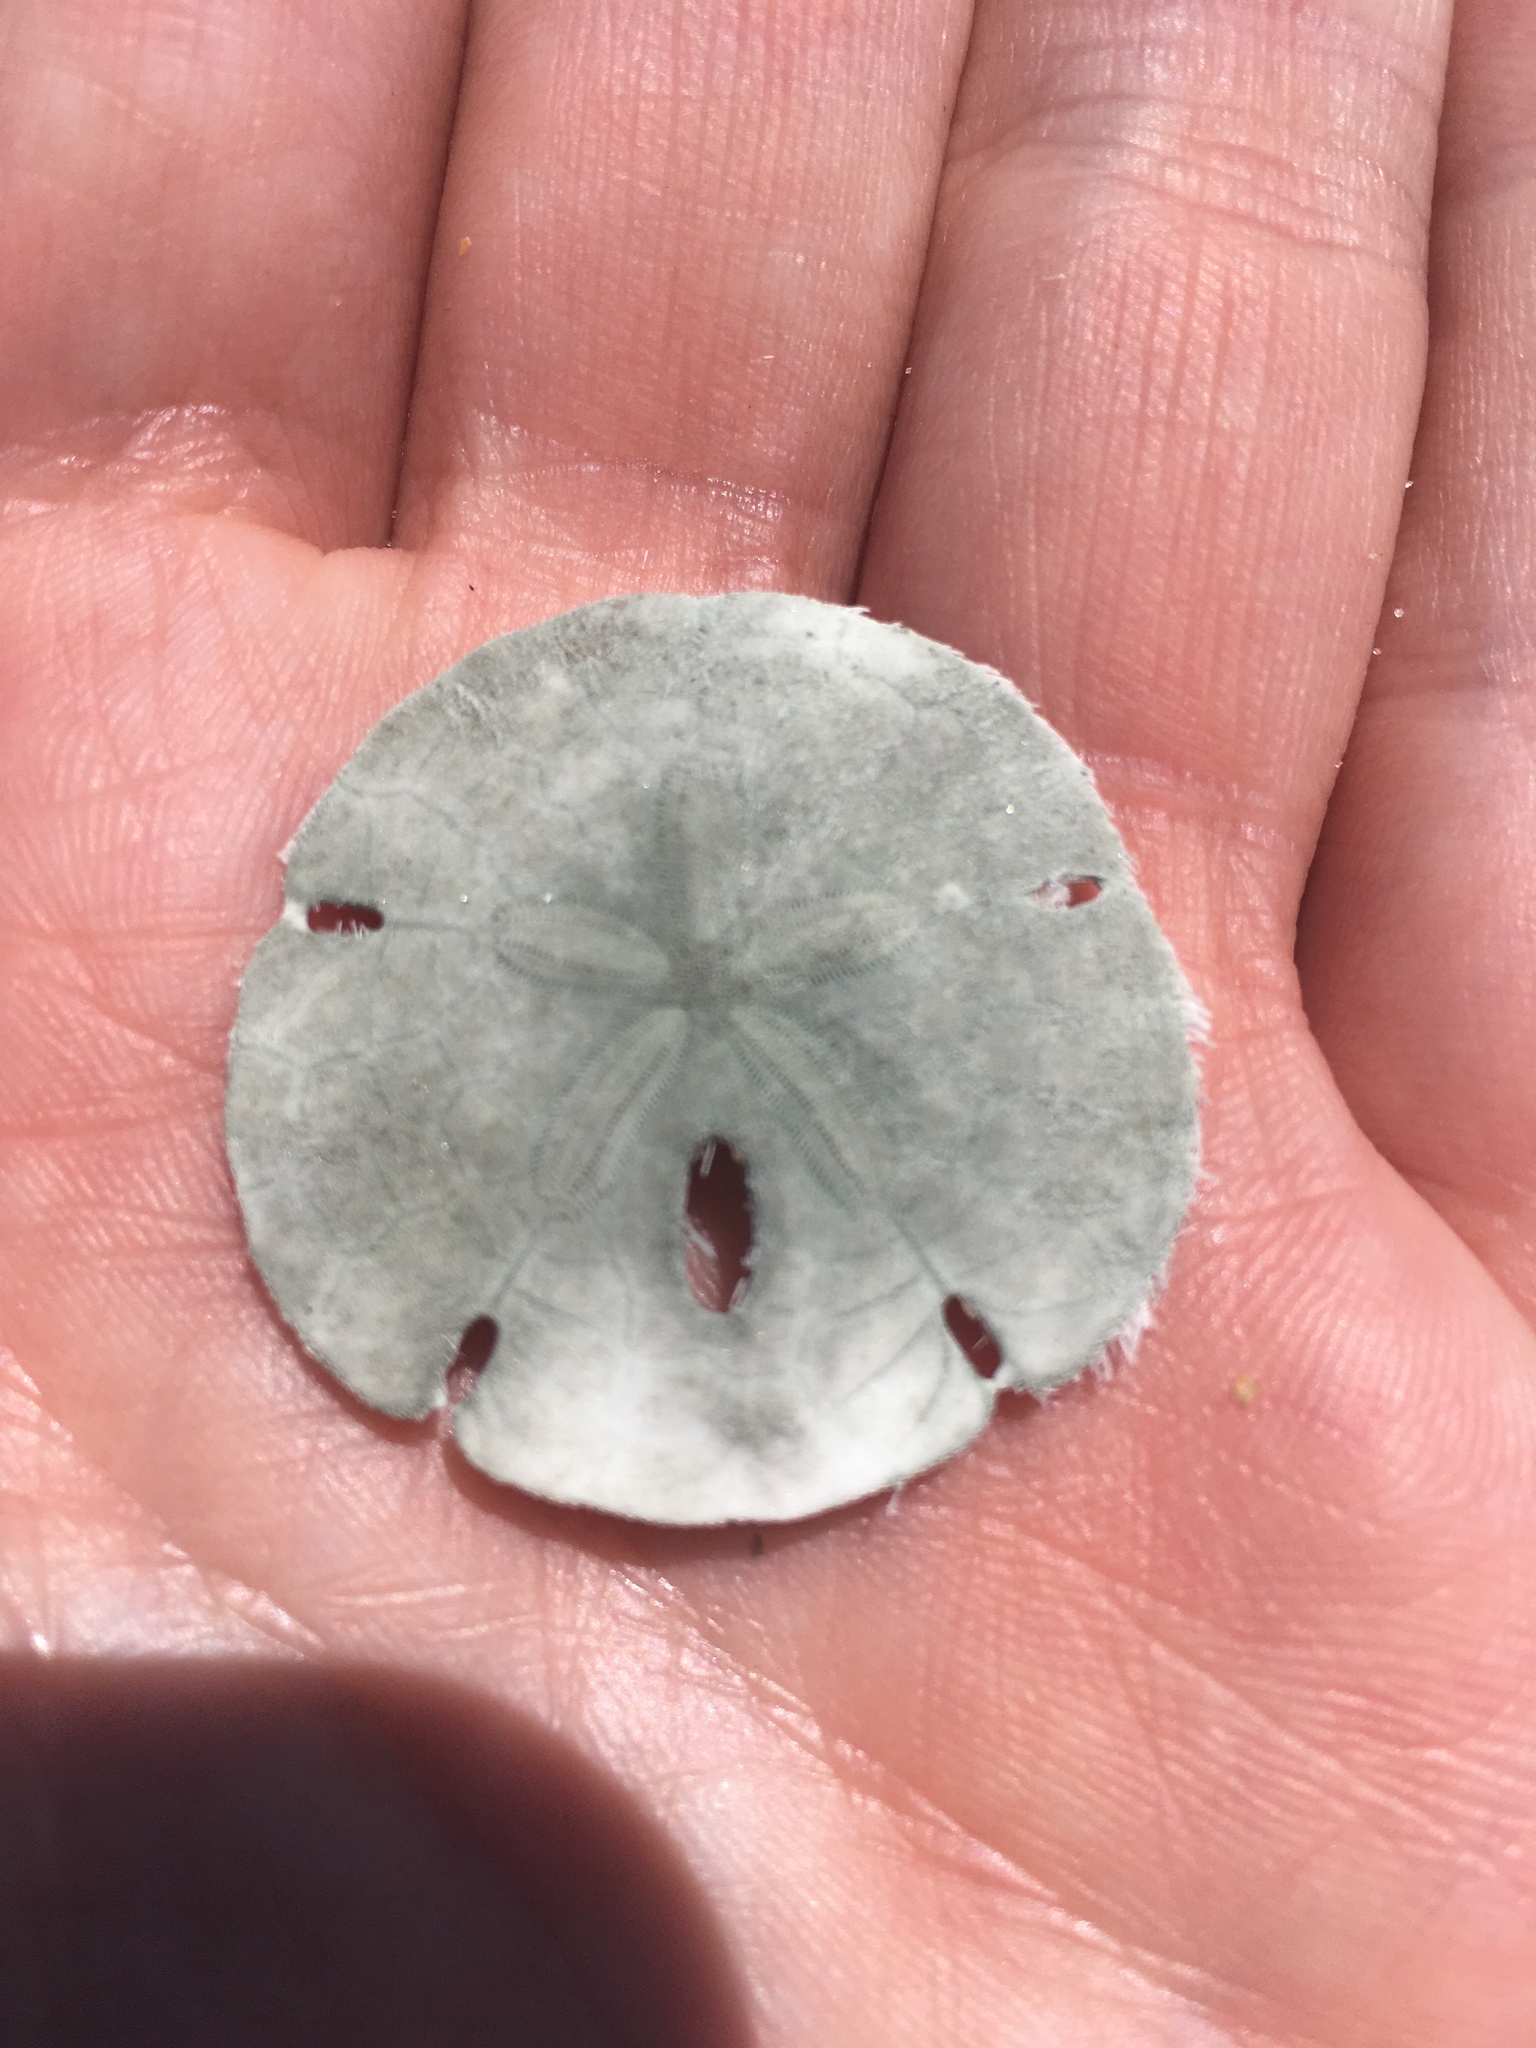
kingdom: Animalia
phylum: Echinodermata
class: Echinoidea
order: Echinolampadacea
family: Mellitidae
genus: Mellita
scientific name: Mellita tenuis
